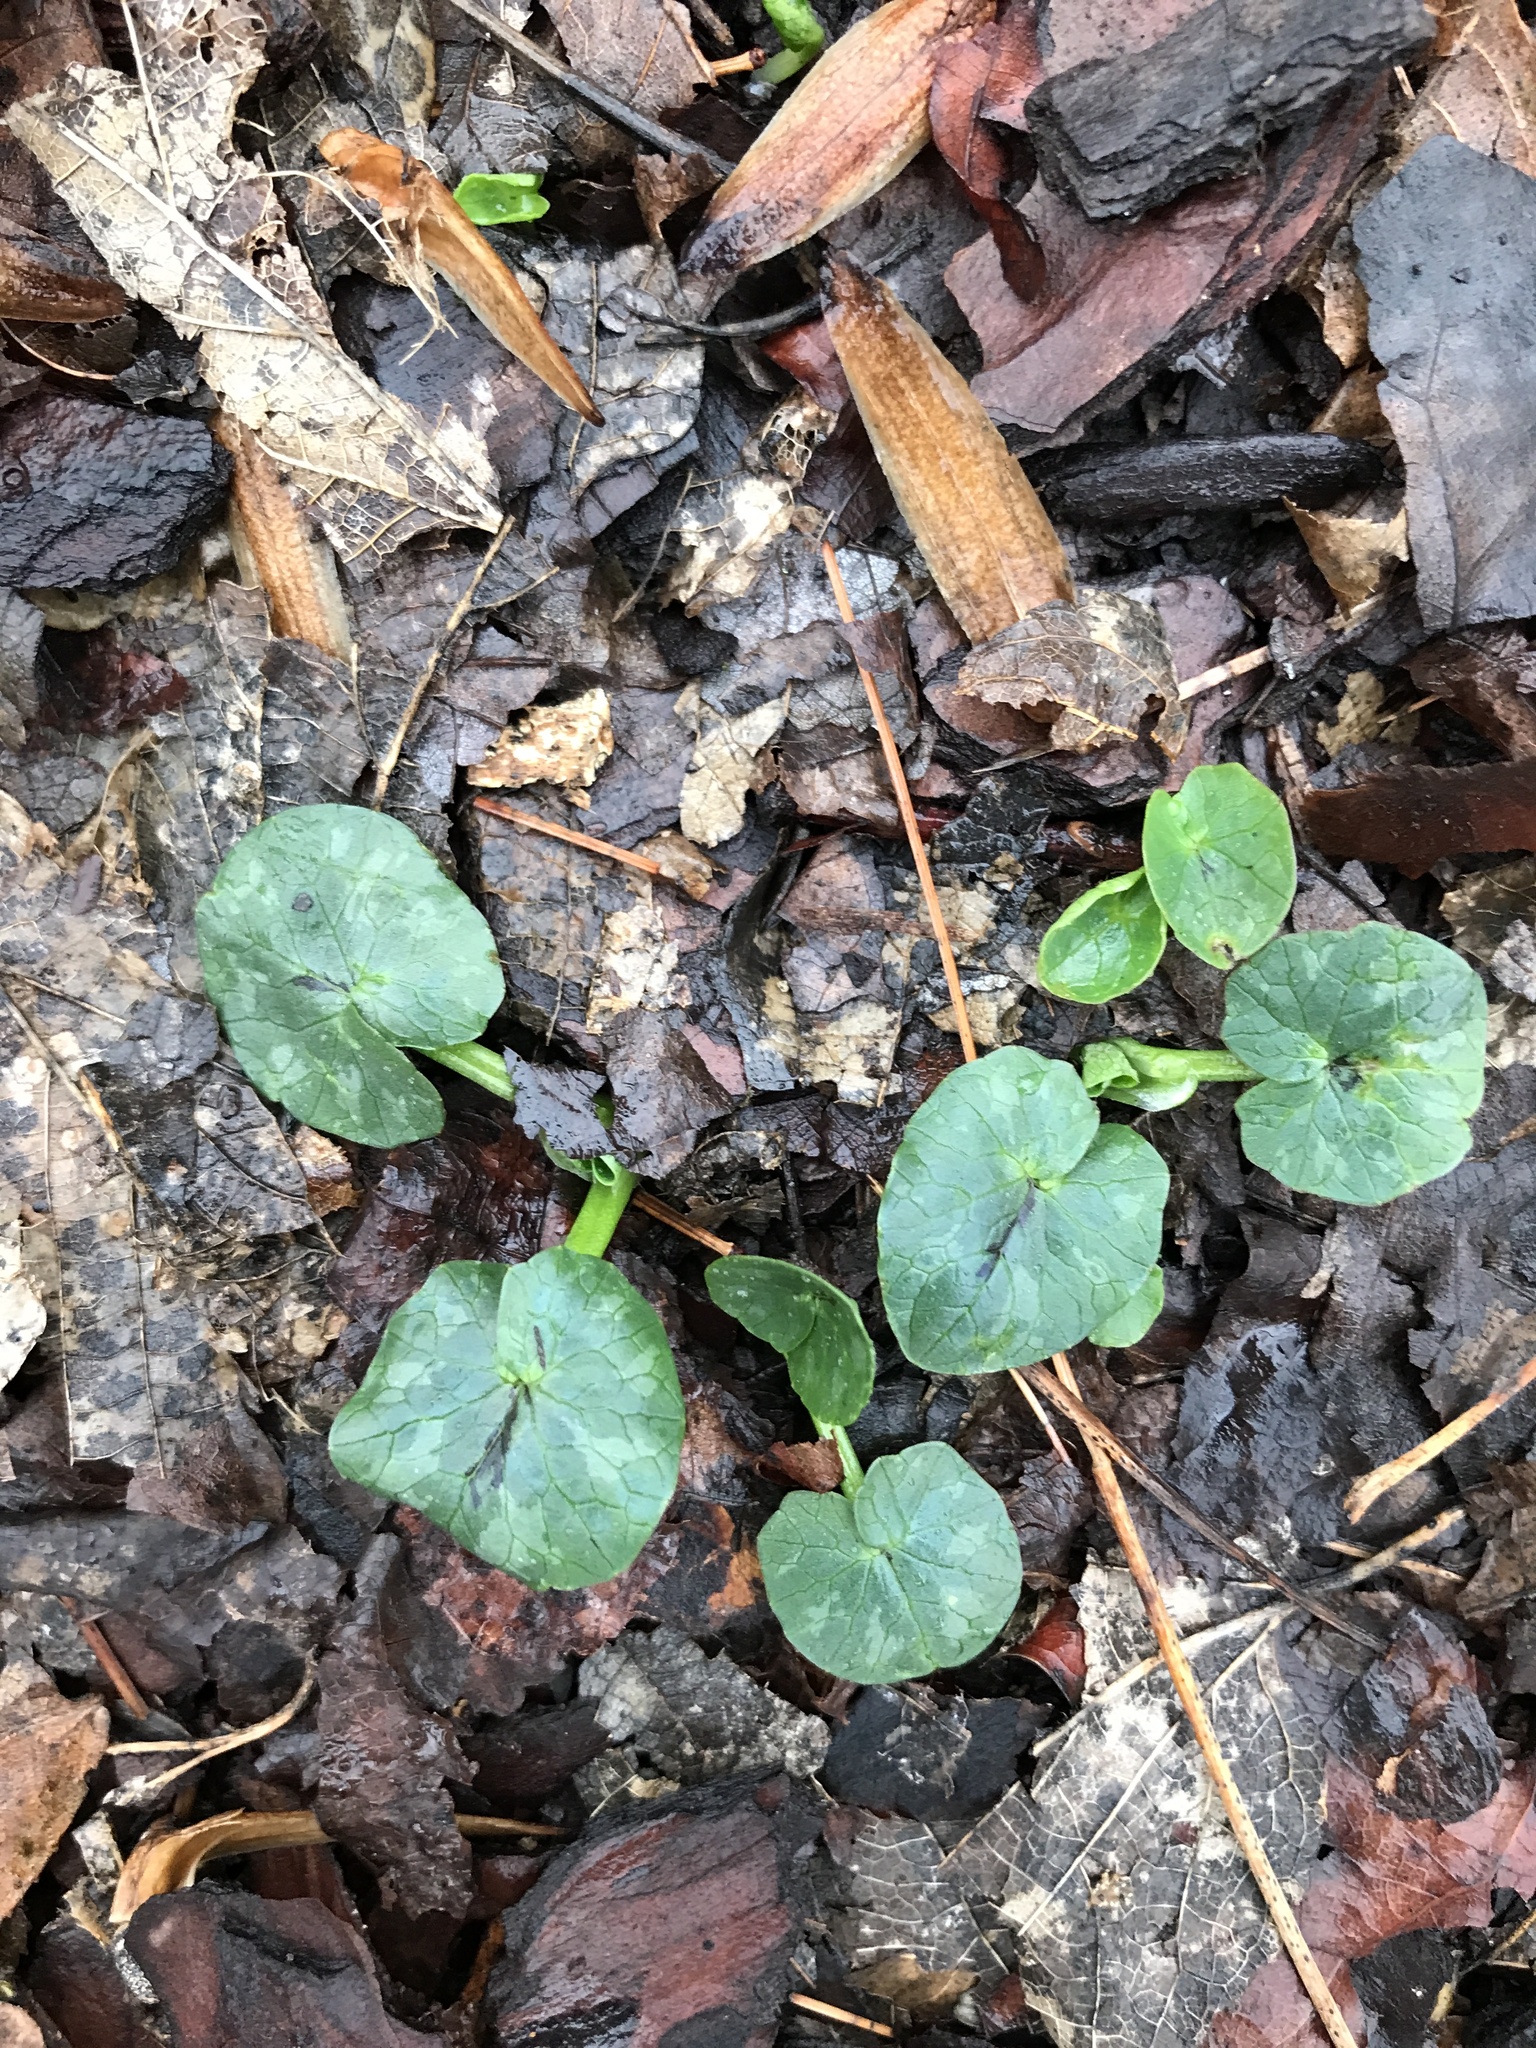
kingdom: Plantae
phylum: Tracheophyta
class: Magnoliopsida
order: Ranunculales
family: Ranunculaceae
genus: Ficaria
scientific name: Ficaria verna
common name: Lesser celandine
